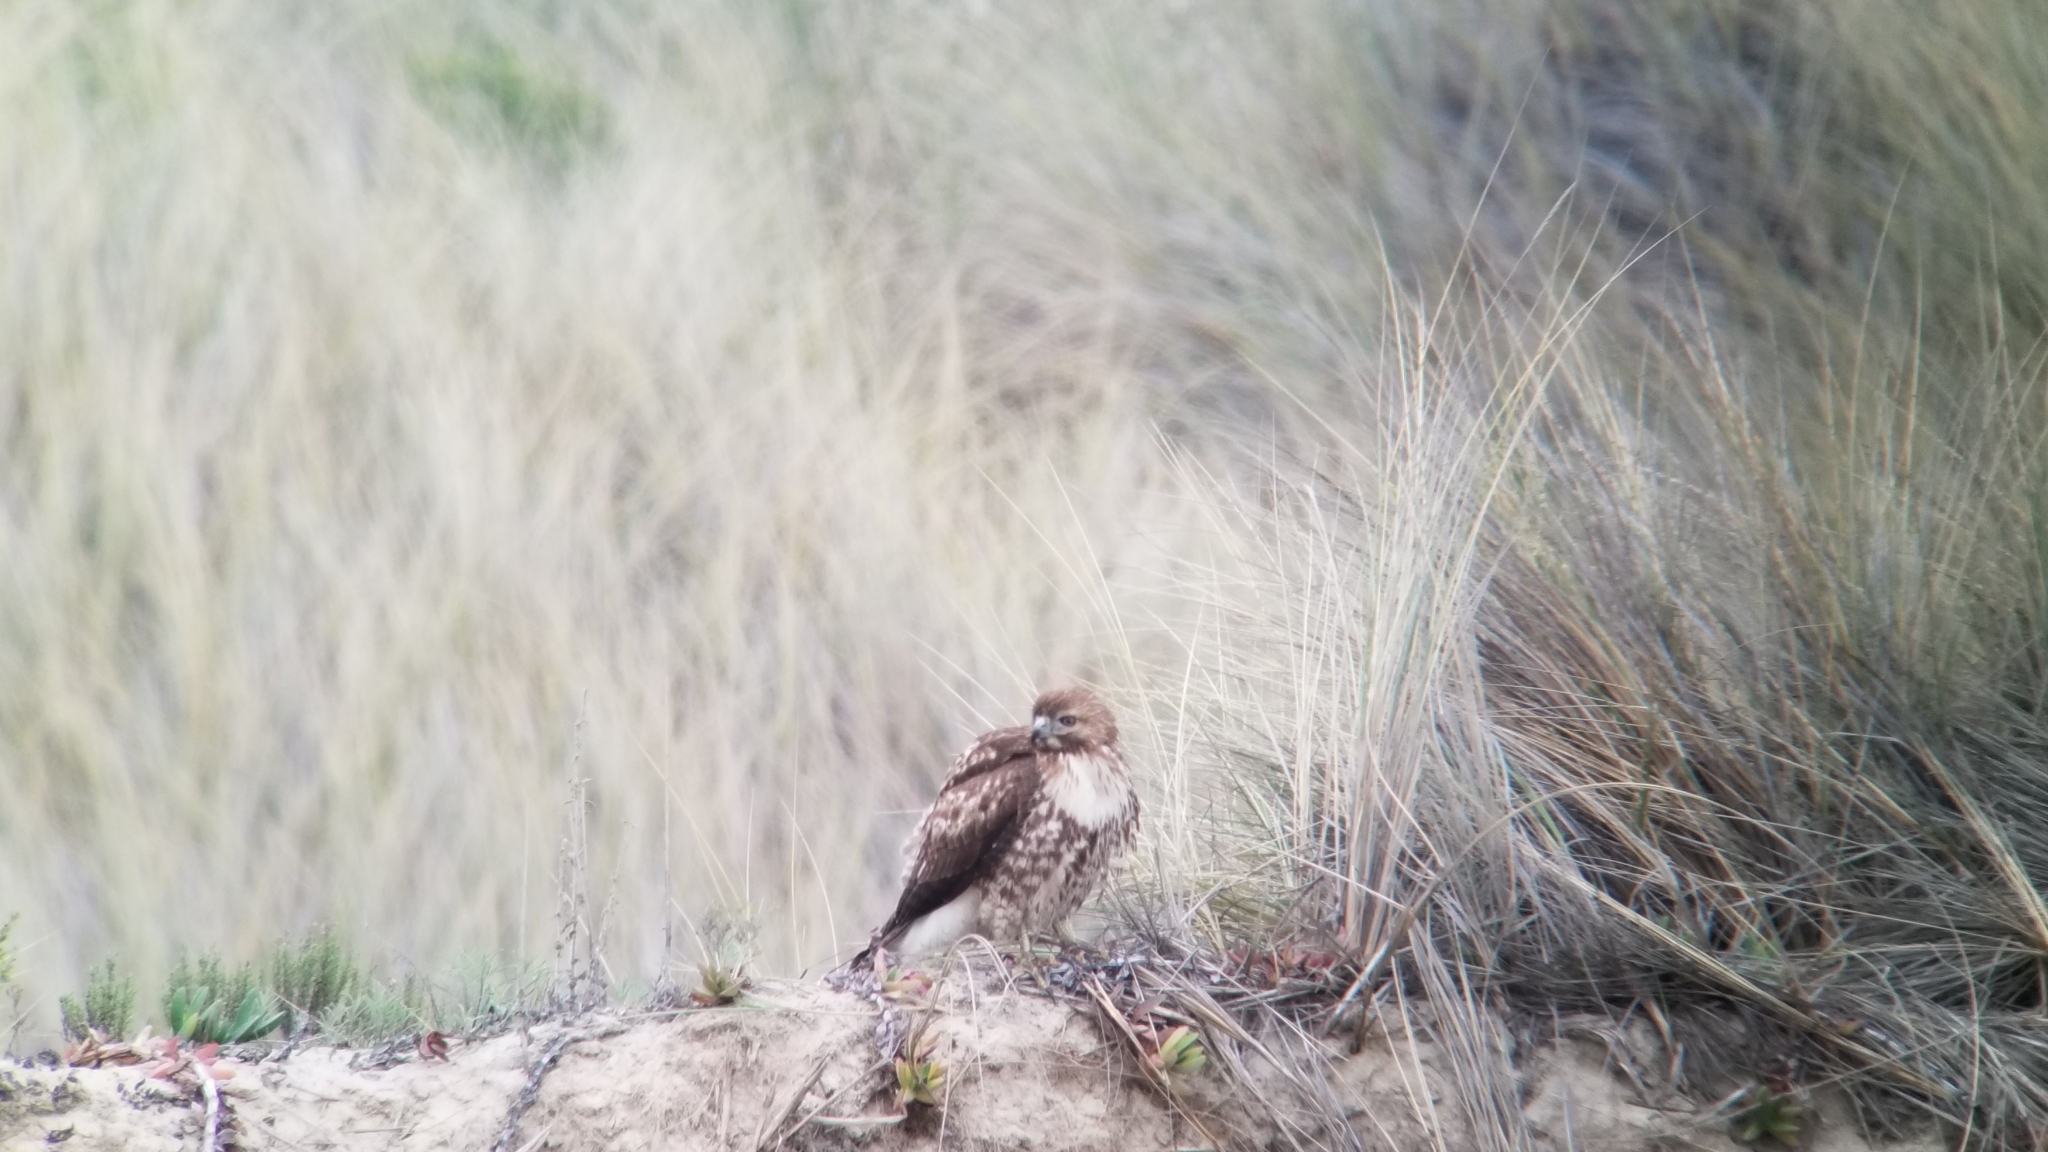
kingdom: Animalia
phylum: Chordata
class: Aves
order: Accipitriformes
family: Accipitridae
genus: Buteo
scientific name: Buteo jamaicensis
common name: Red-tailed hawk
